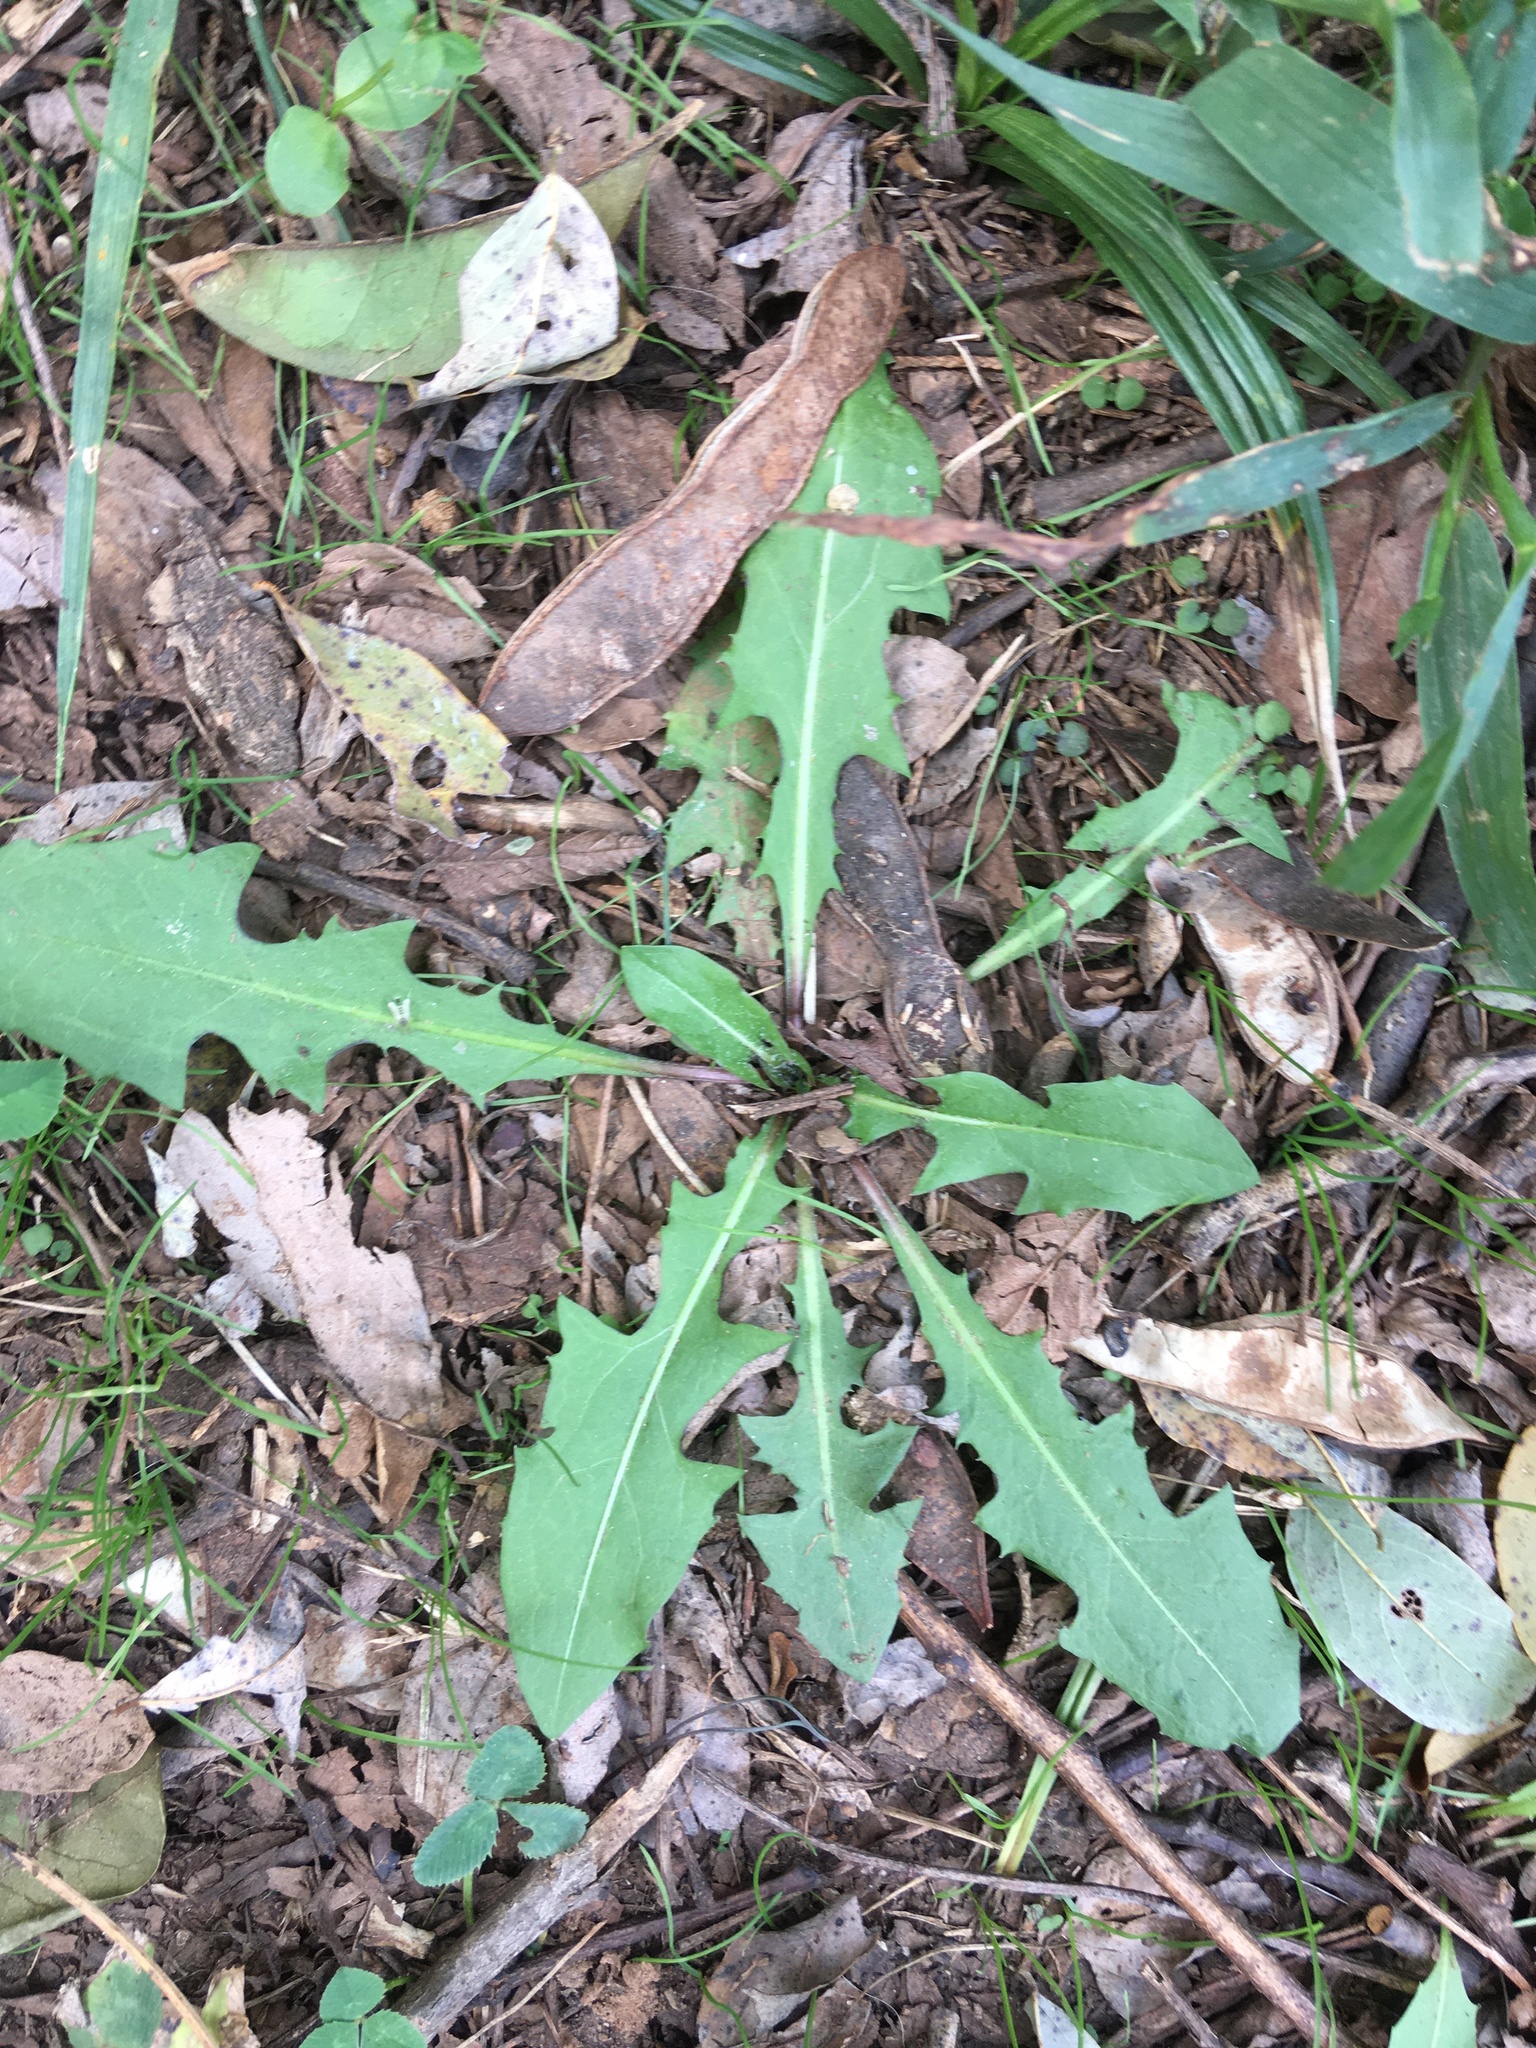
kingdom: Plantae
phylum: Tracheophyta
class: Magnoliopsida
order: Asterales
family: Asteraceae
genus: Taraxacum
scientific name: Taraxacum officinale
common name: Common dandelion
